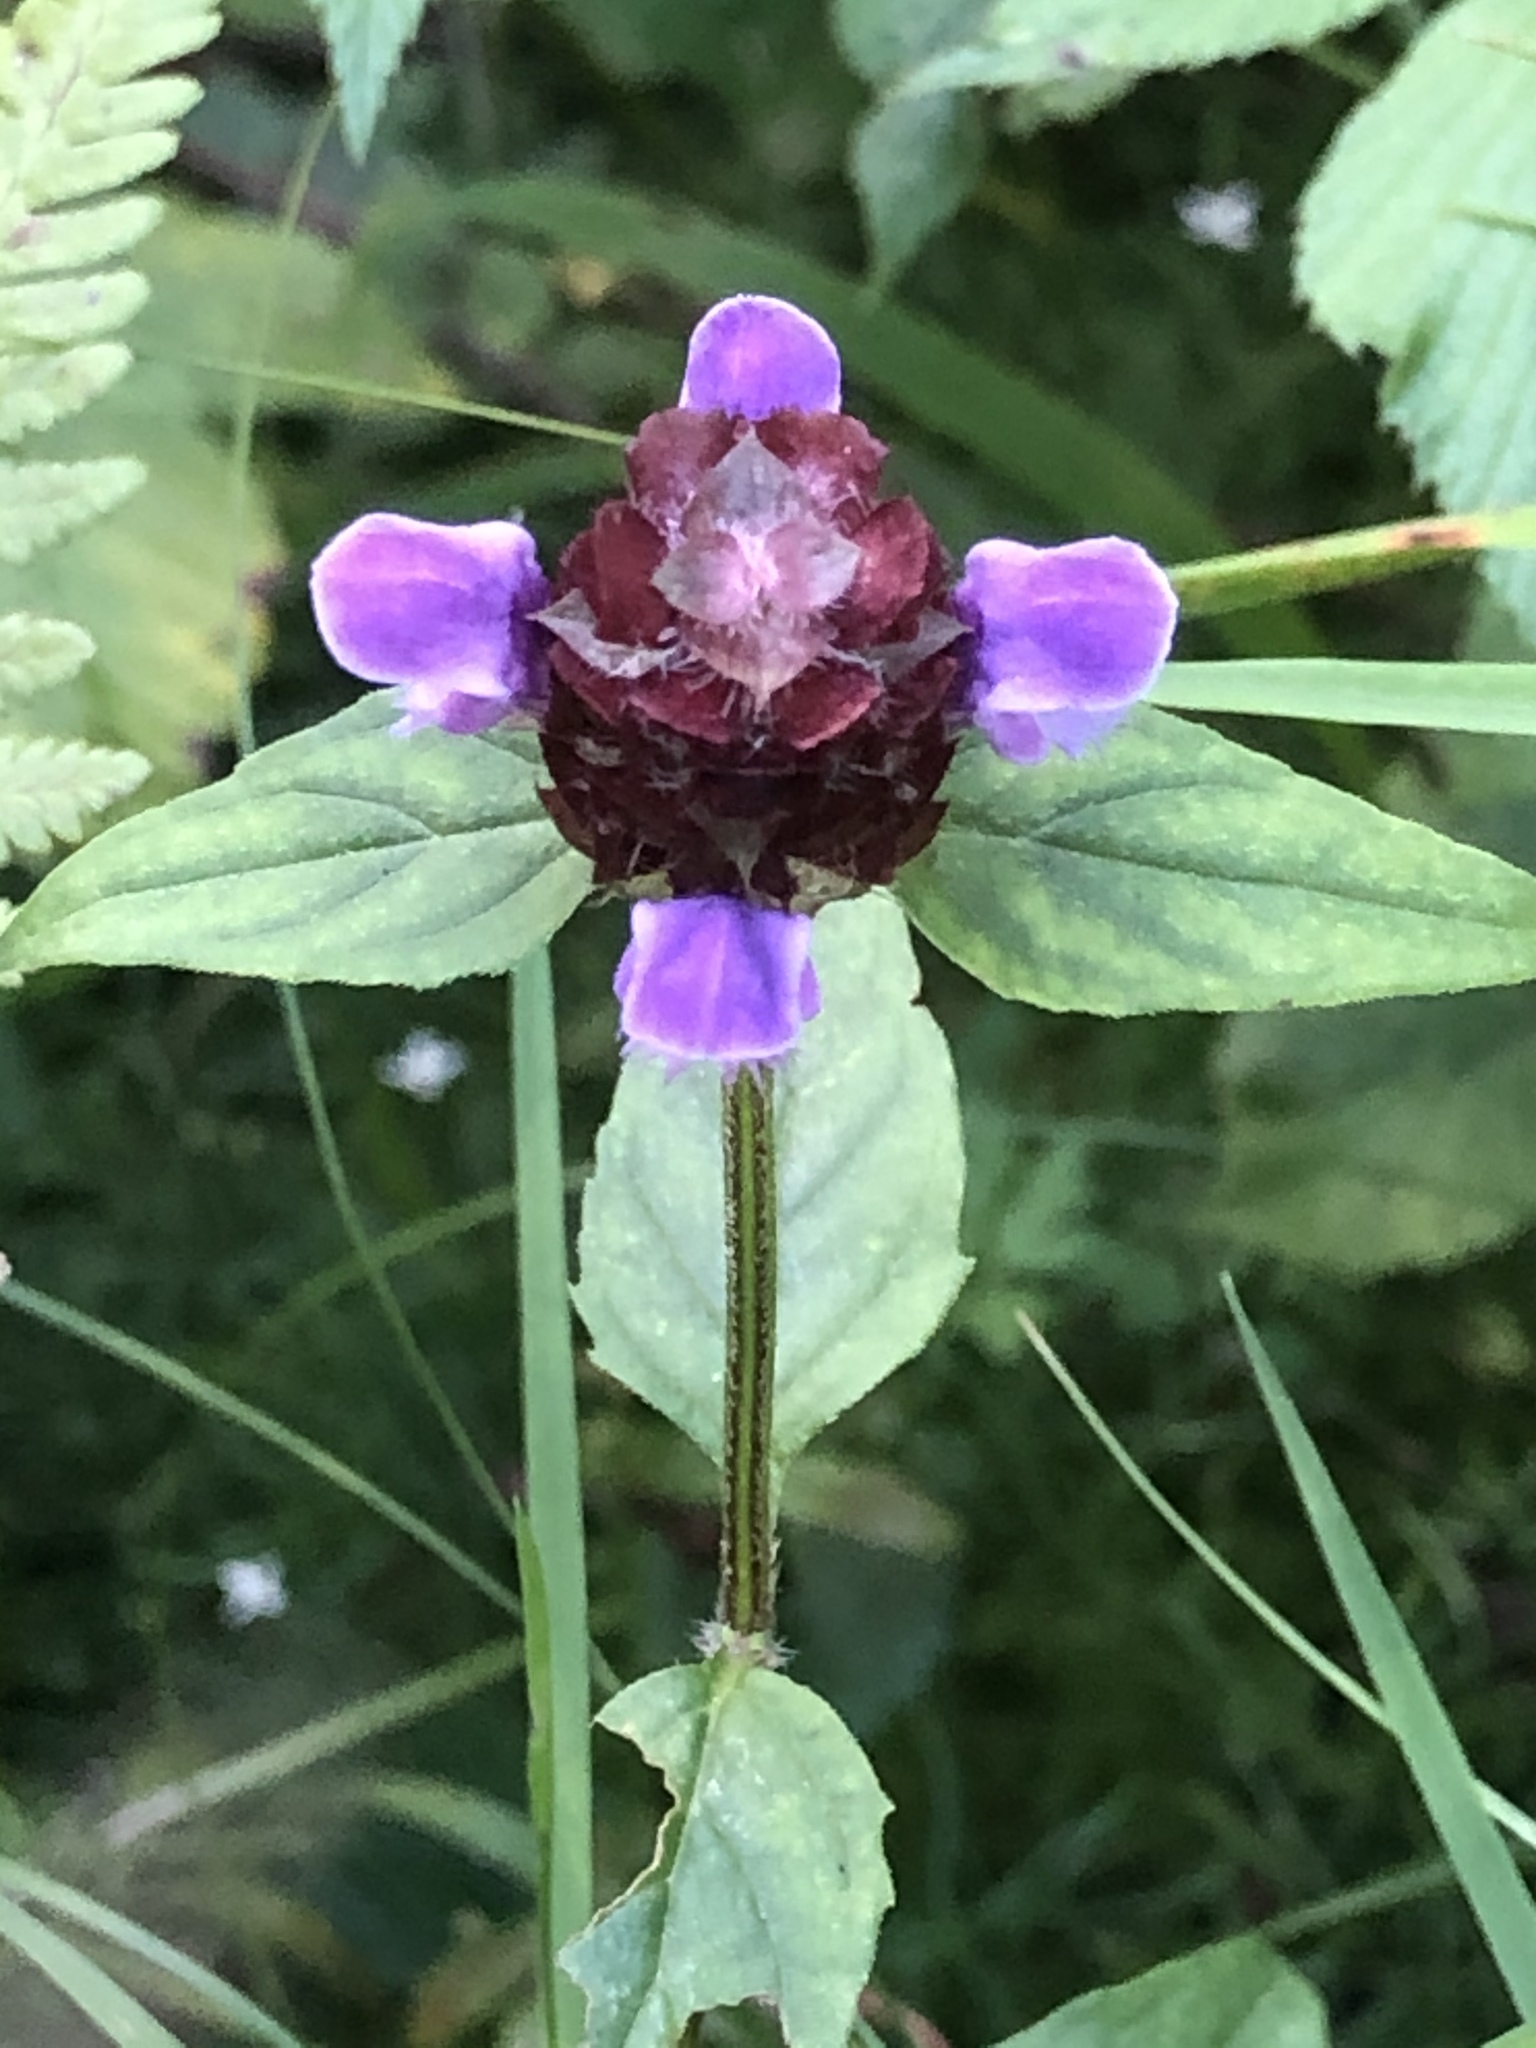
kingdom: Plantae
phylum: Tracheophyta
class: Magnoliopsida
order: Lamiales
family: Lamiaceae
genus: Prunella
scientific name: Prunella vulgaris
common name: Heal-all
